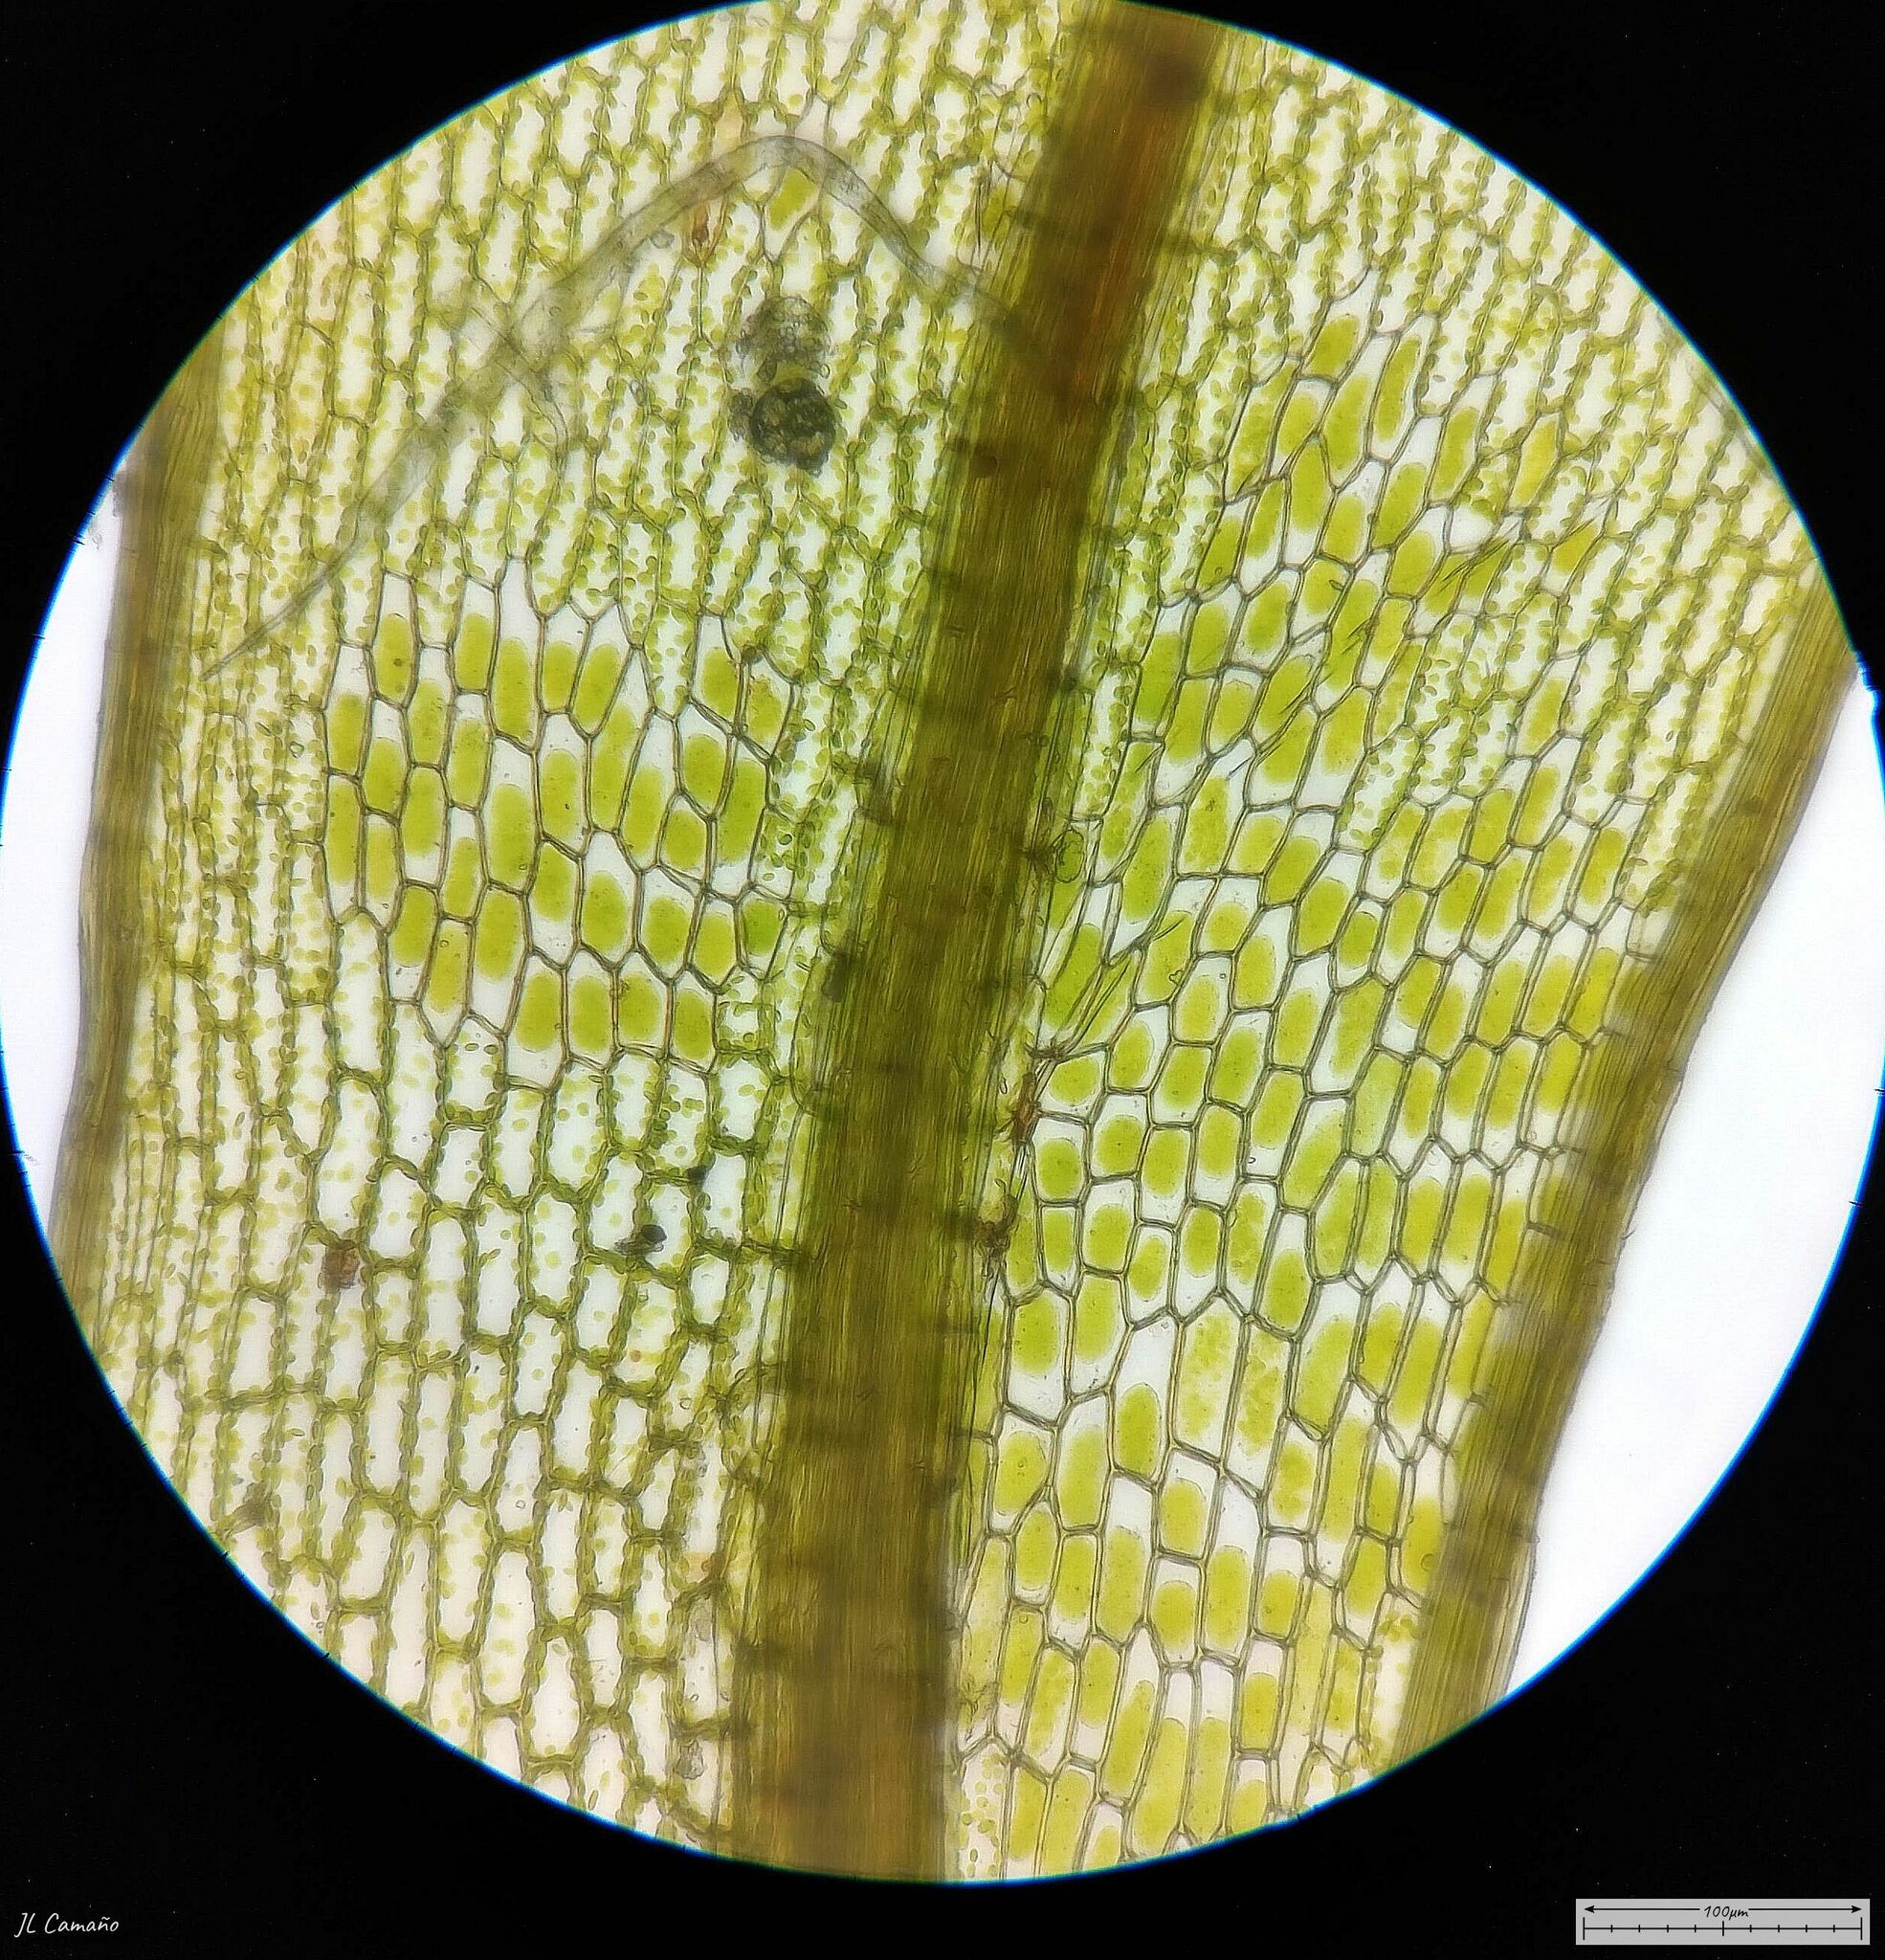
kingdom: Plantae
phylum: Bryophyta
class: Bryopsida
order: Bryales
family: Bryaceae
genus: Rosulabryum
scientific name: Rosulabryum capillare
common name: Capillary thread-moss
